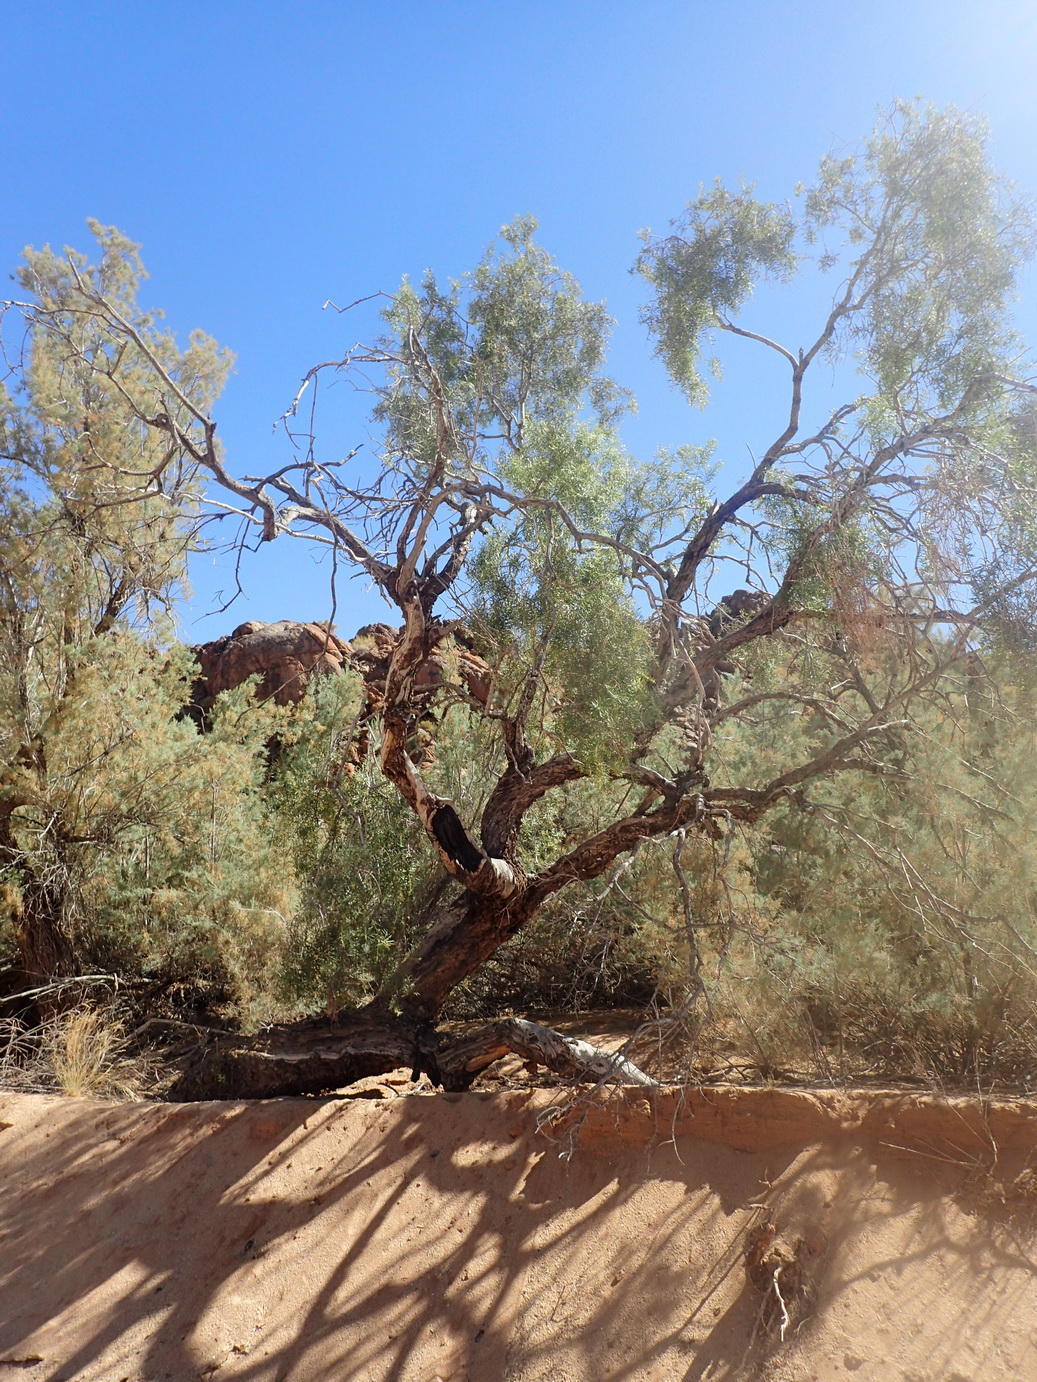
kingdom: Plantae
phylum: Tracheophyta
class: Magnoliopsida
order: Ericales
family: Ebenaceae
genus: Euclea
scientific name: Euclea pseudebenus
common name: Black ebony
